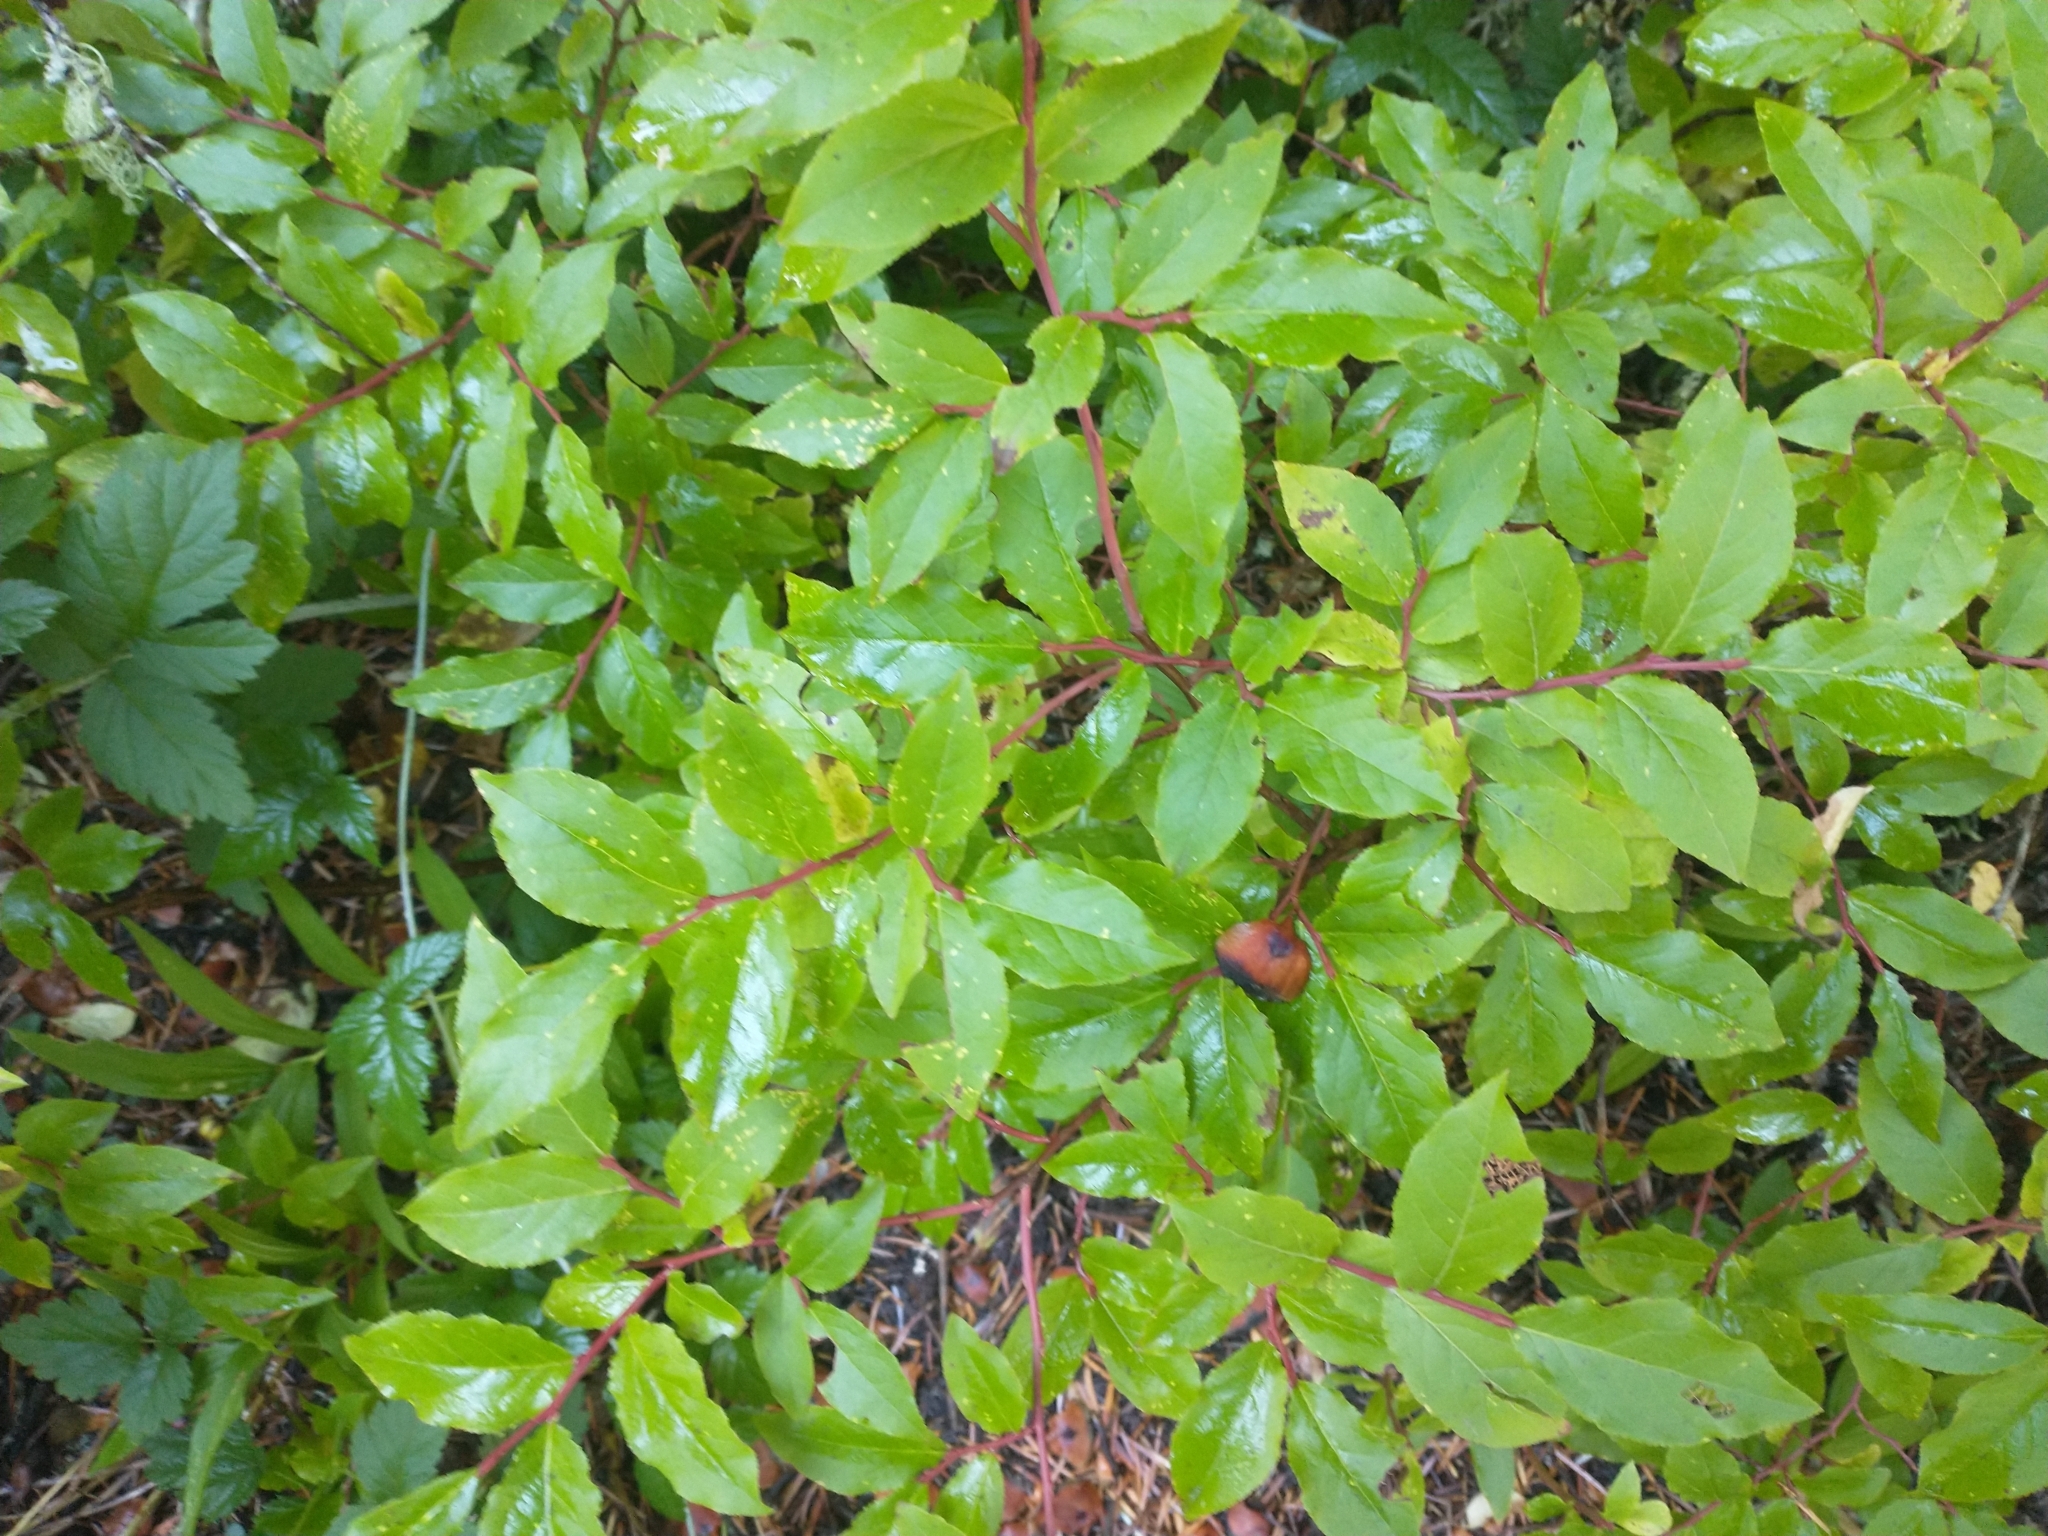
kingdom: Plantae
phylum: Tracheophyta
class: Magnoliopsida
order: Ericales
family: Ericaceae
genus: Vaccinium
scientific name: Vaccinium membranaceum
